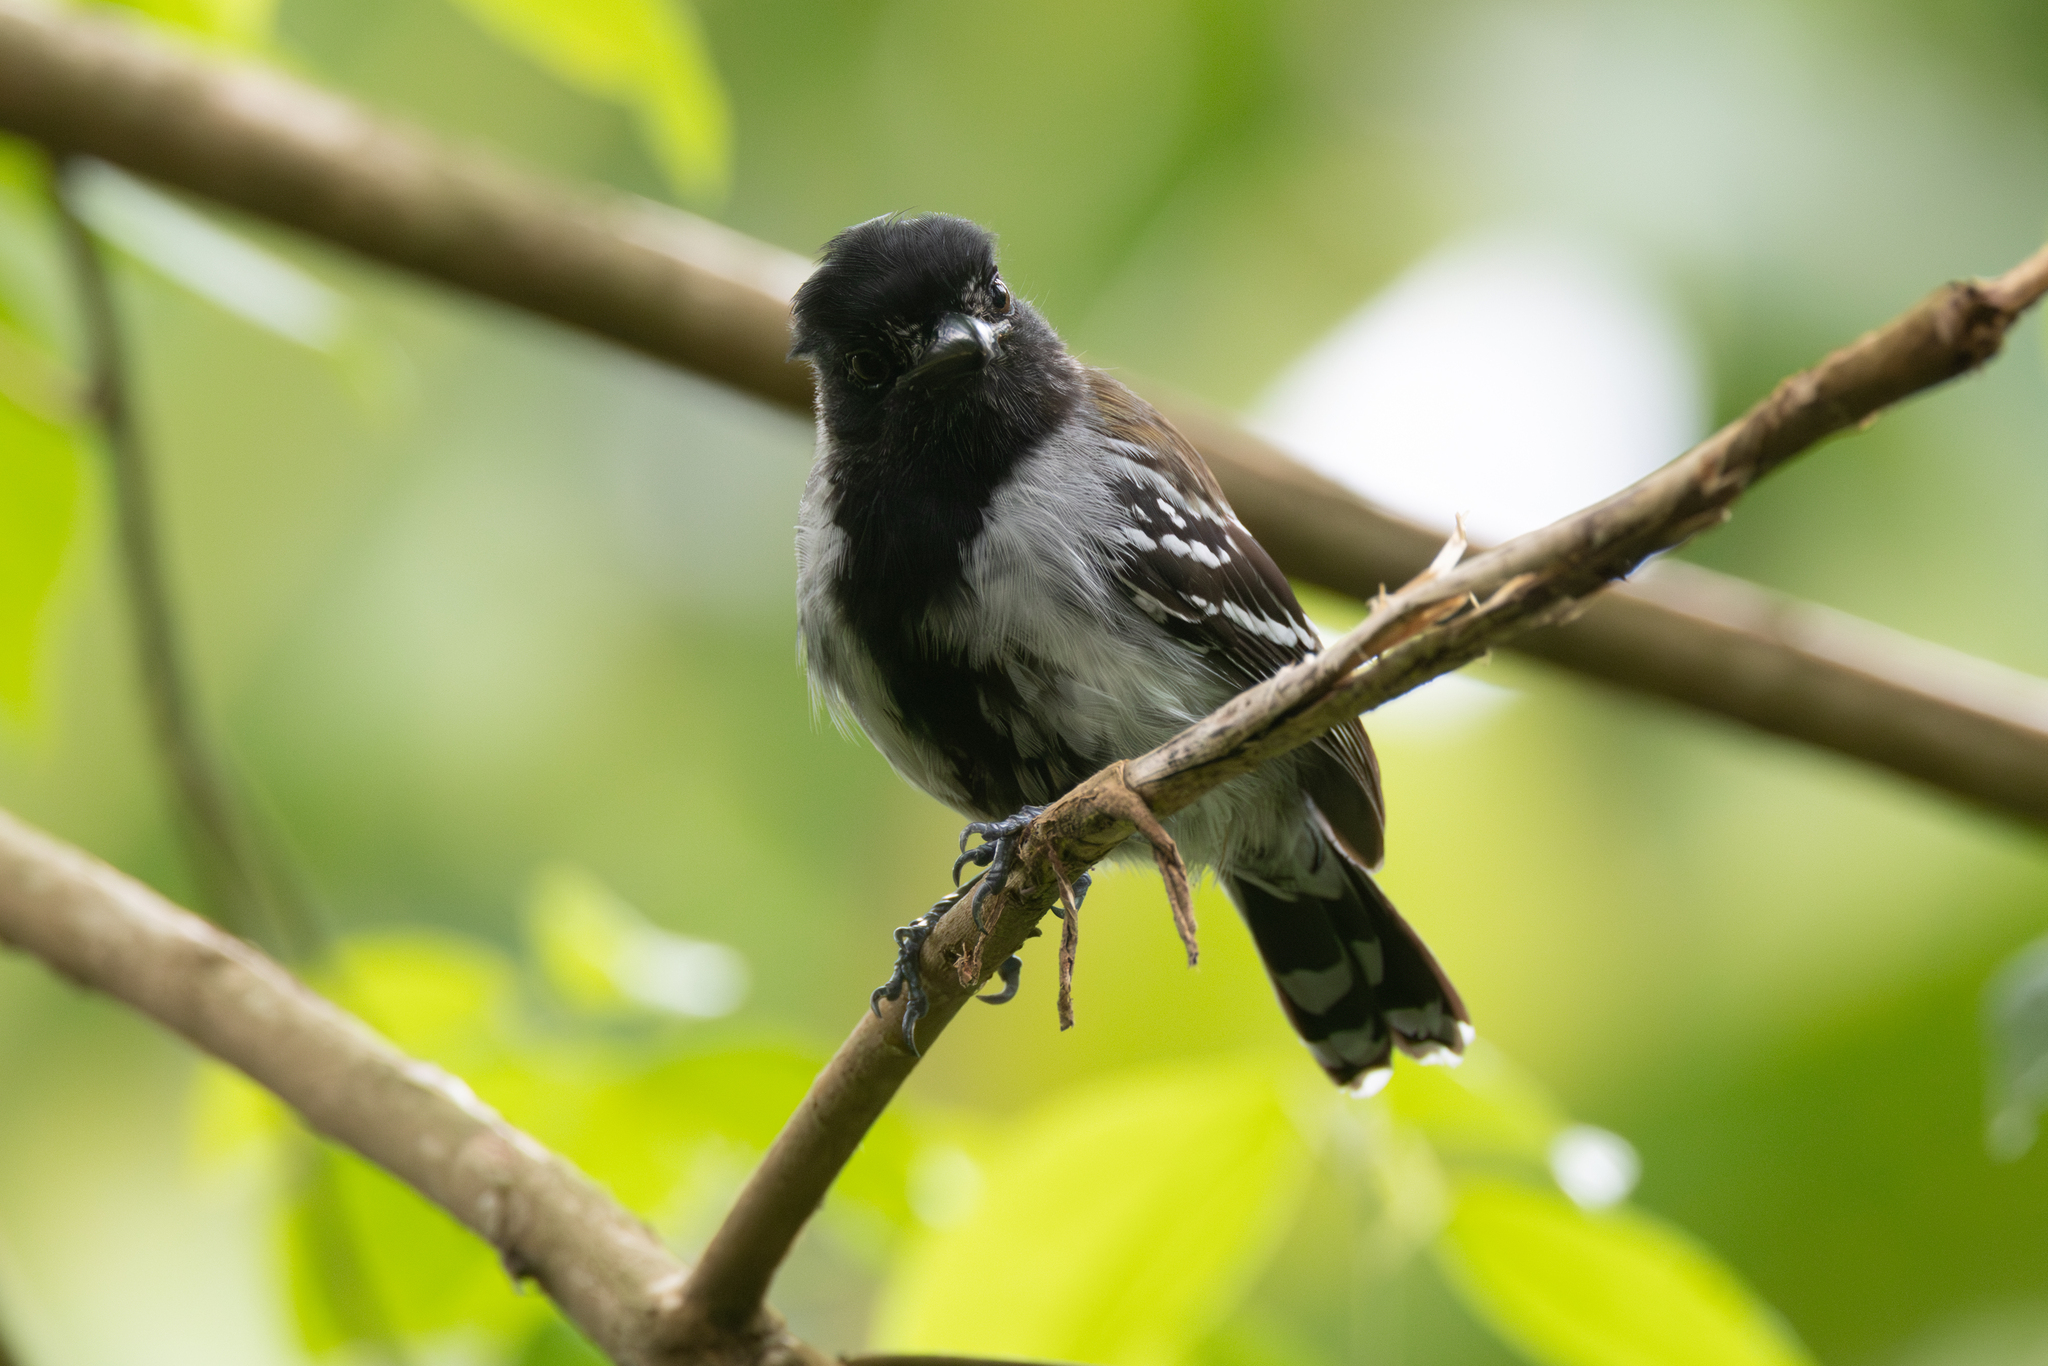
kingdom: Animalia
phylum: Chordata
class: Aves
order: Passeriformes
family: Thamnophilidae
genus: Sakesphorus
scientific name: Sakesphorus canadensis
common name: Black-crested antshrike
